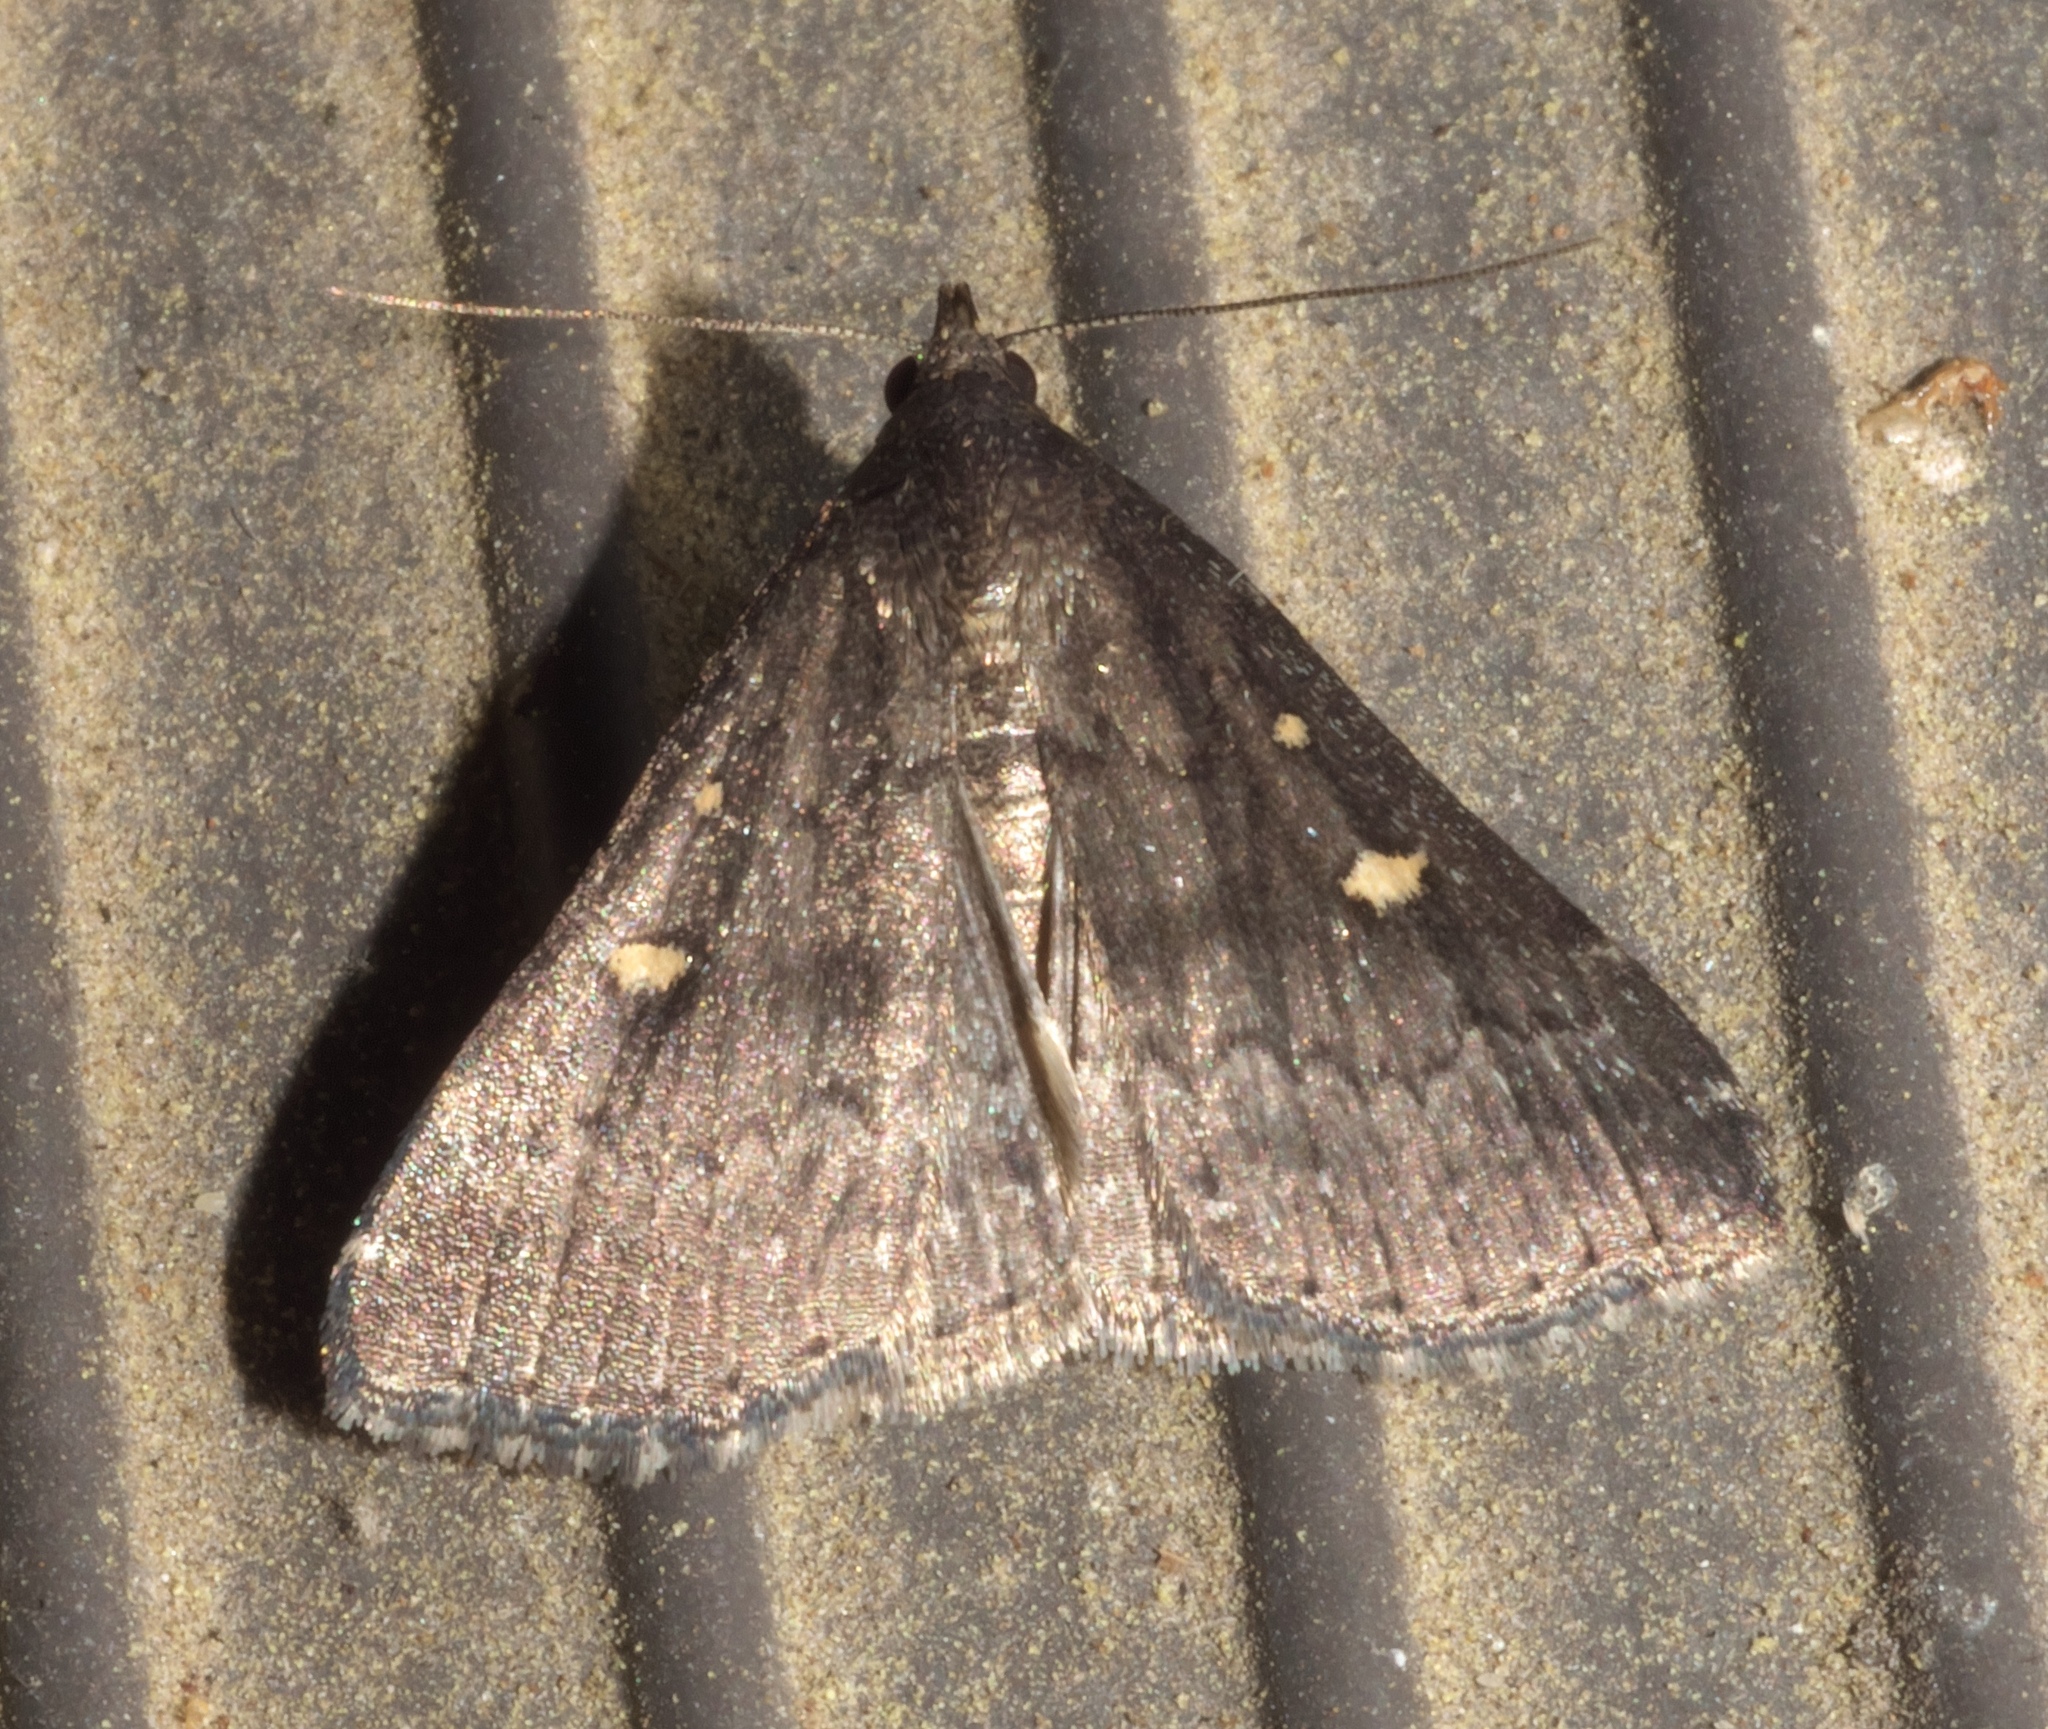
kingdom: Animalia
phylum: Arthropoda
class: Insecta
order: Lepidoptera
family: Erebidae
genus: Tetanolita
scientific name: Tetanolita mynesalis
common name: Smoky tetanolita moth
